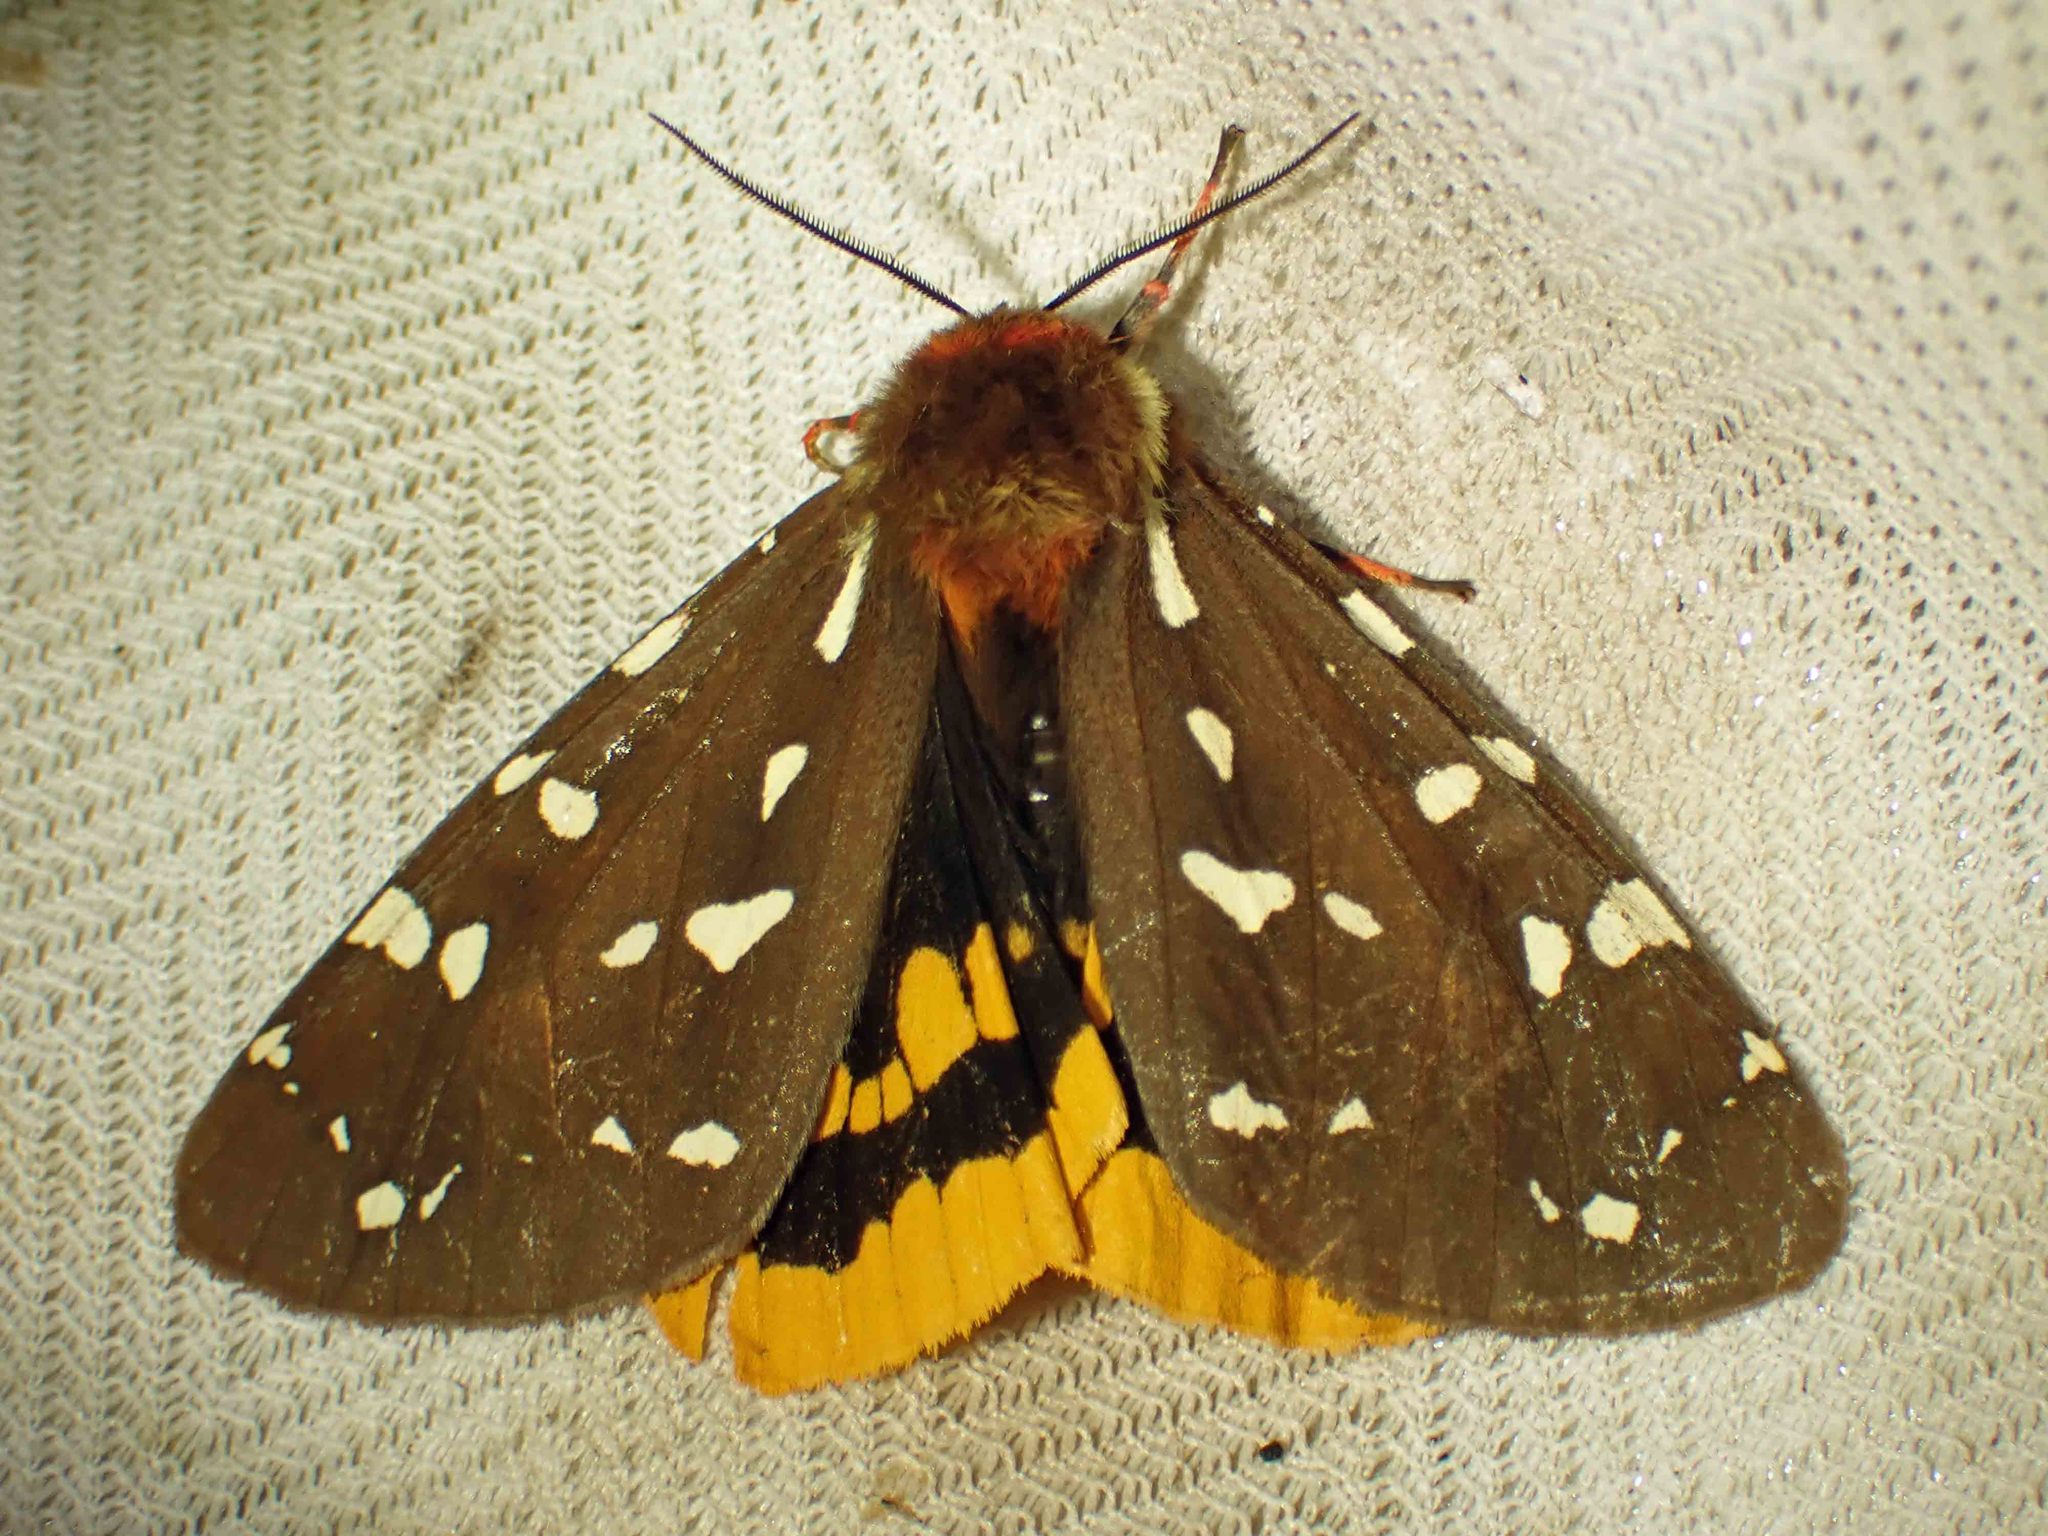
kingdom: Animalia
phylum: Arthropoda
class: Insecta
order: Lepidoptera
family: Erebidae
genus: Arctia
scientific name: Arctia parthenos
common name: St. lawrence tiger moth
